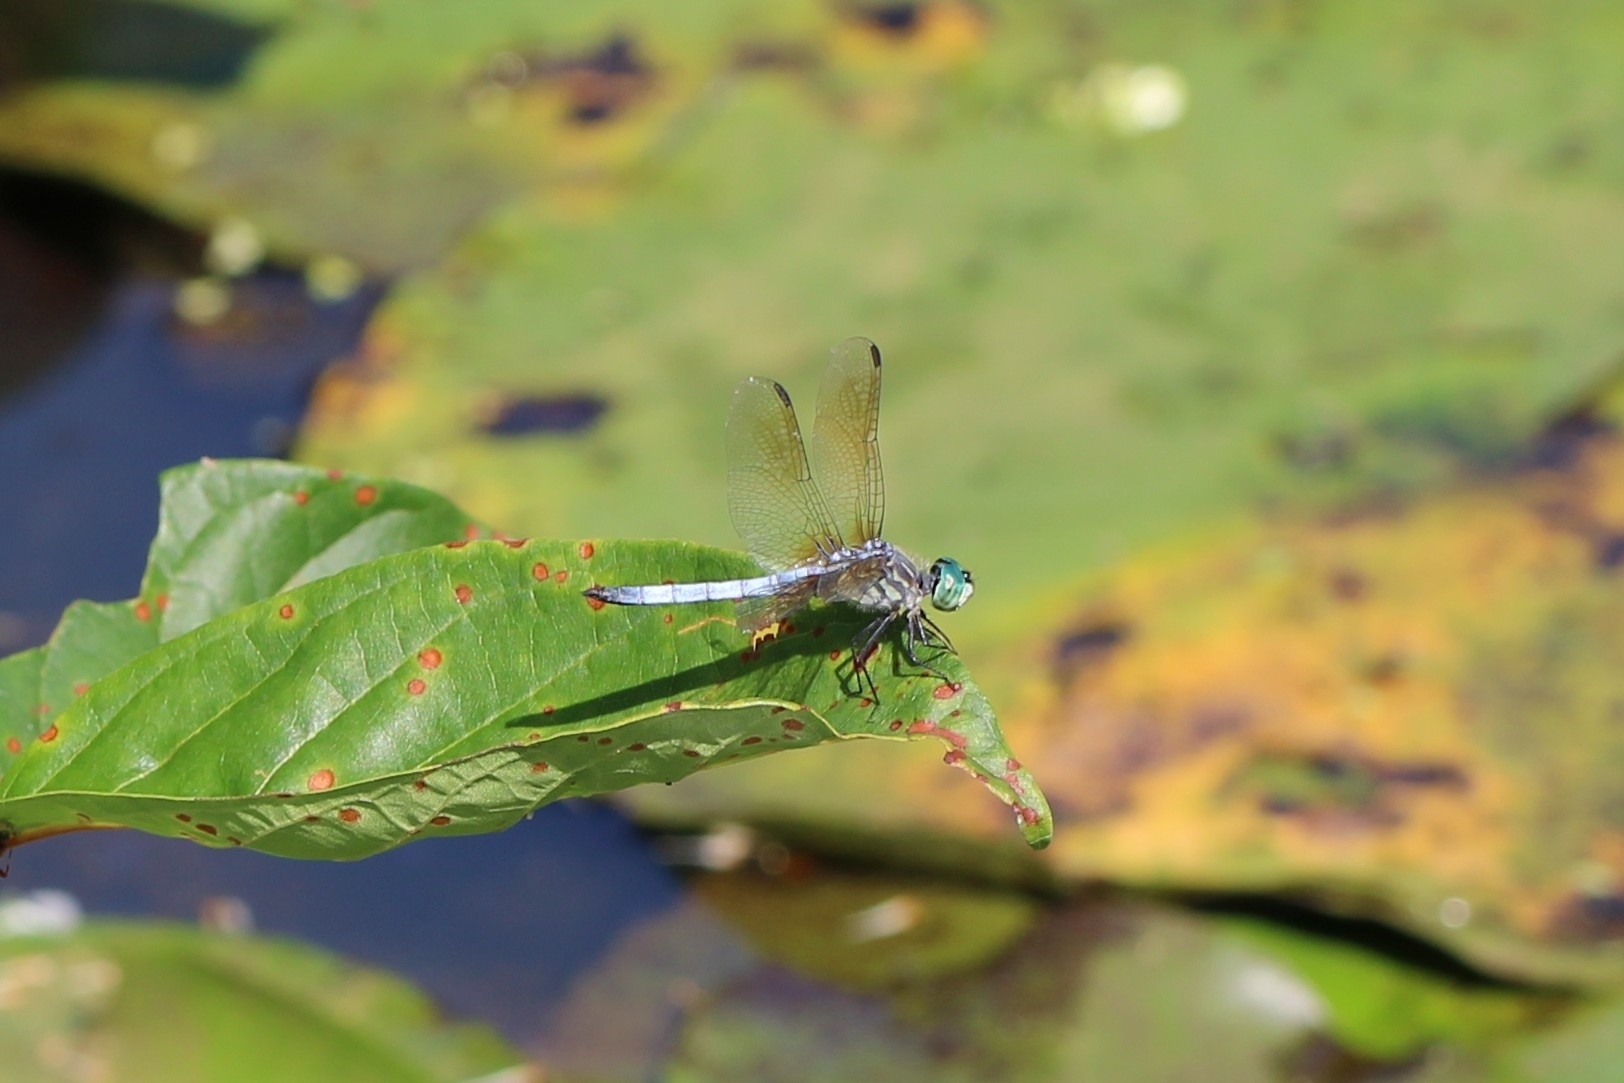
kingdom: Animalia
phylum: Arthropoda
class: Insecta
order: Odonata
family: Libellulidae
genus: Pachydiplax
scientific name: Pachydiplax longipennis
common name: Blue dasher
